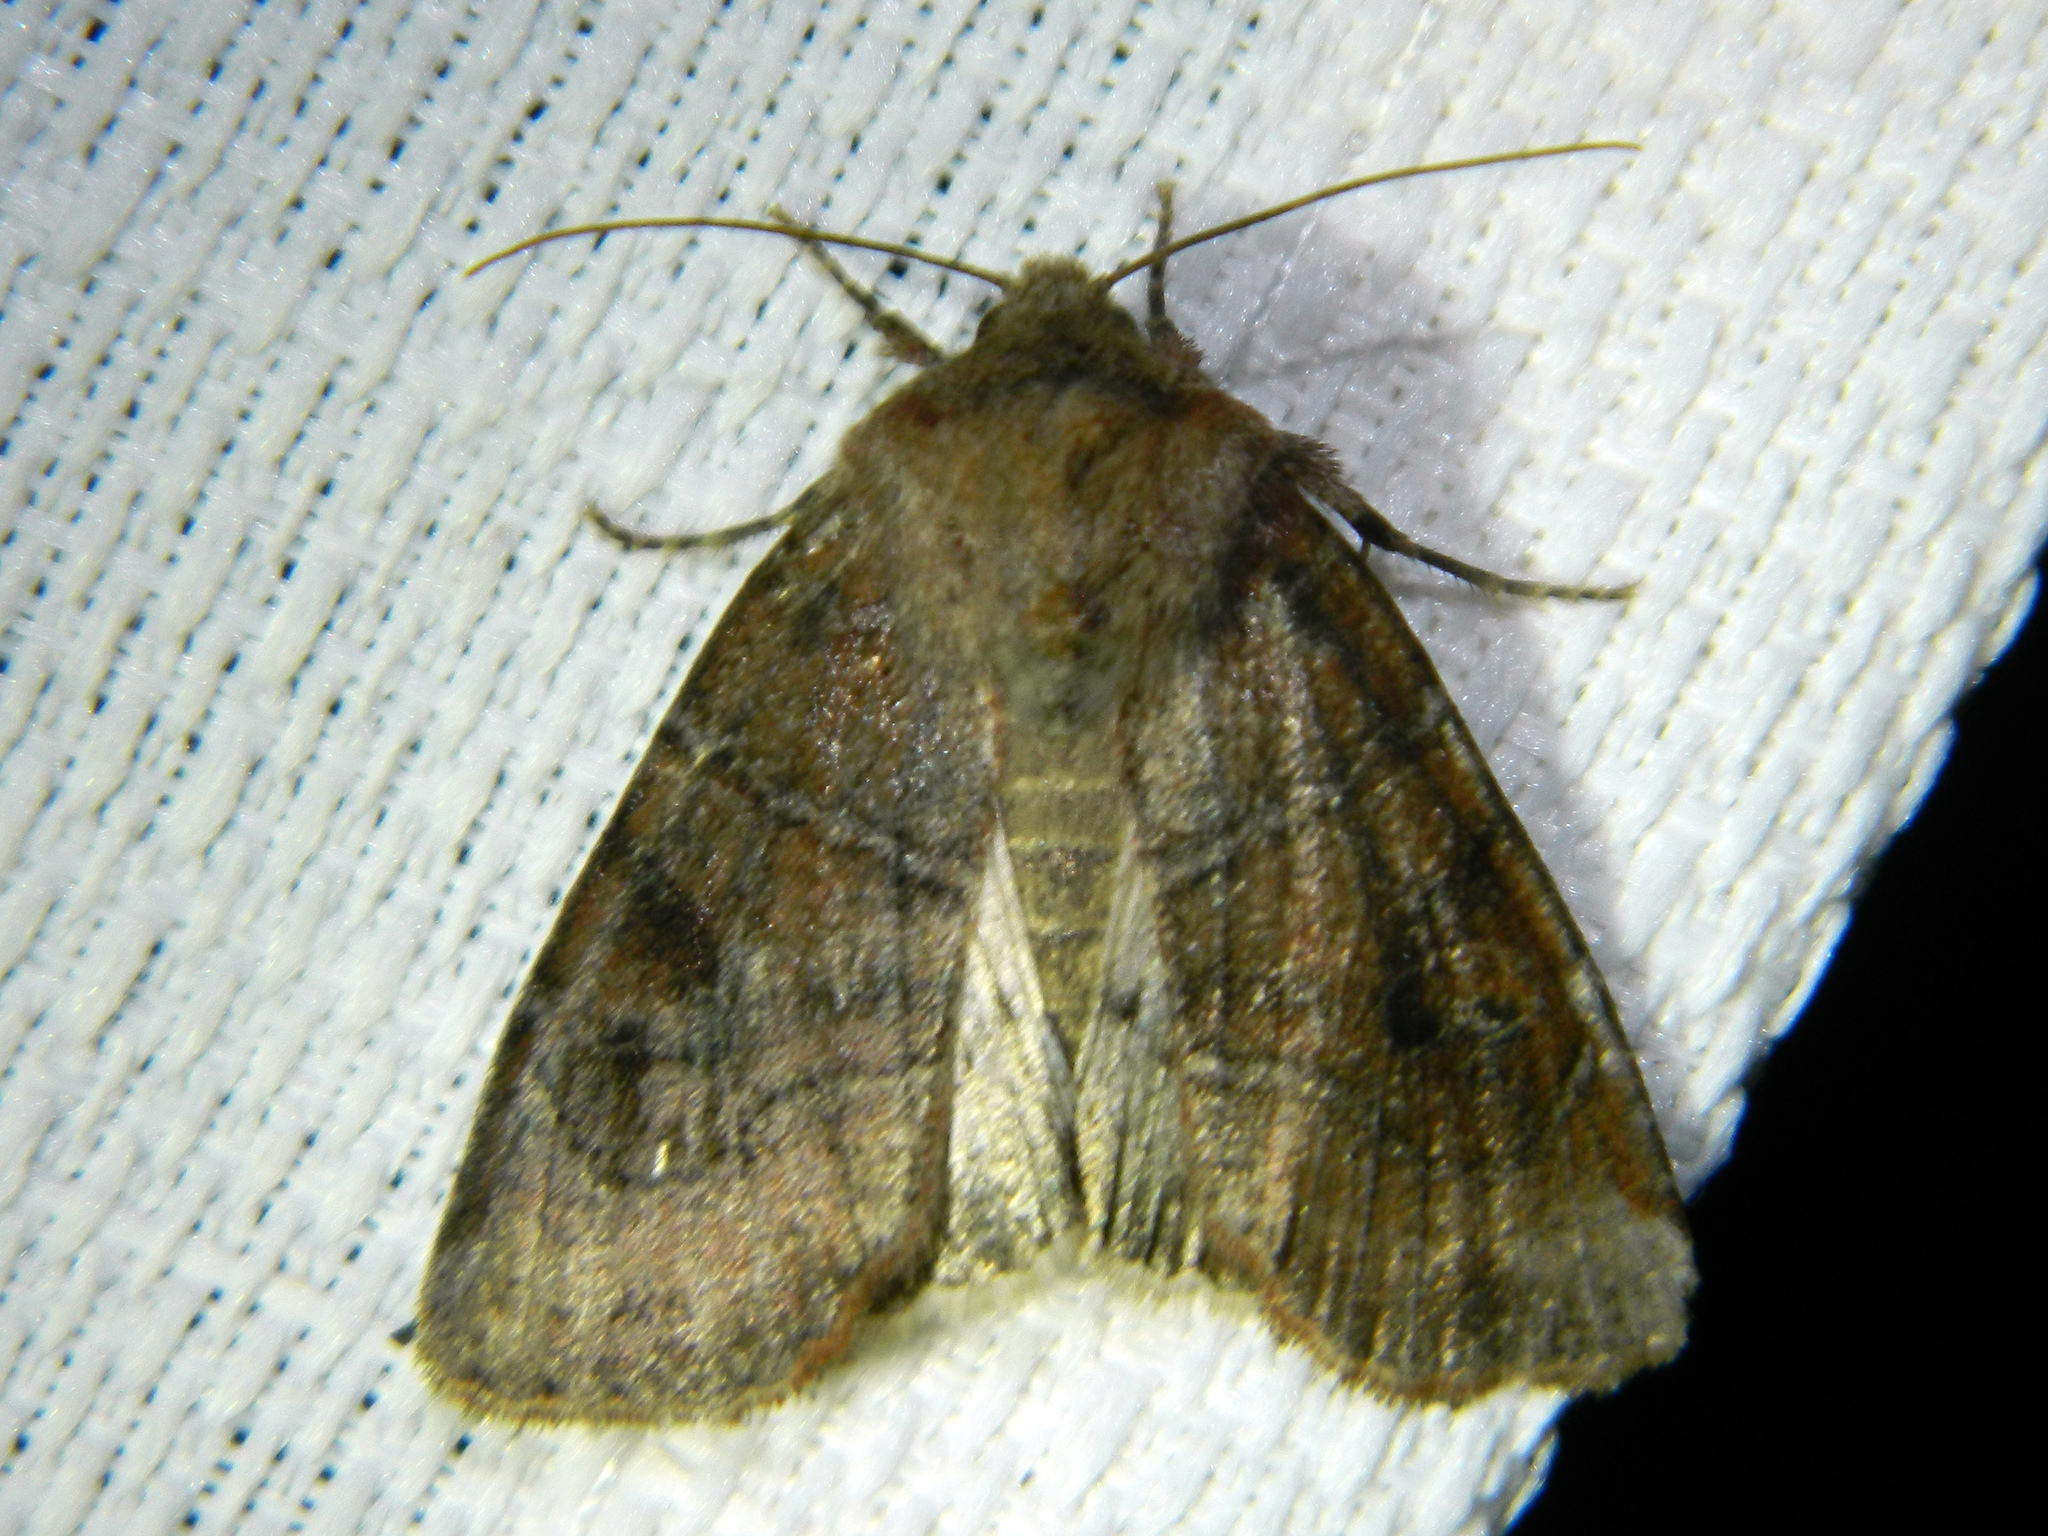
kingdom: Animalia
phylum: Arthropoda
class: Insecta
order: Lepidoptera
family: Noctuidae
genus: Crocigrapha
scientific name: Crocigrapha normani
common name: Norman's quaker
